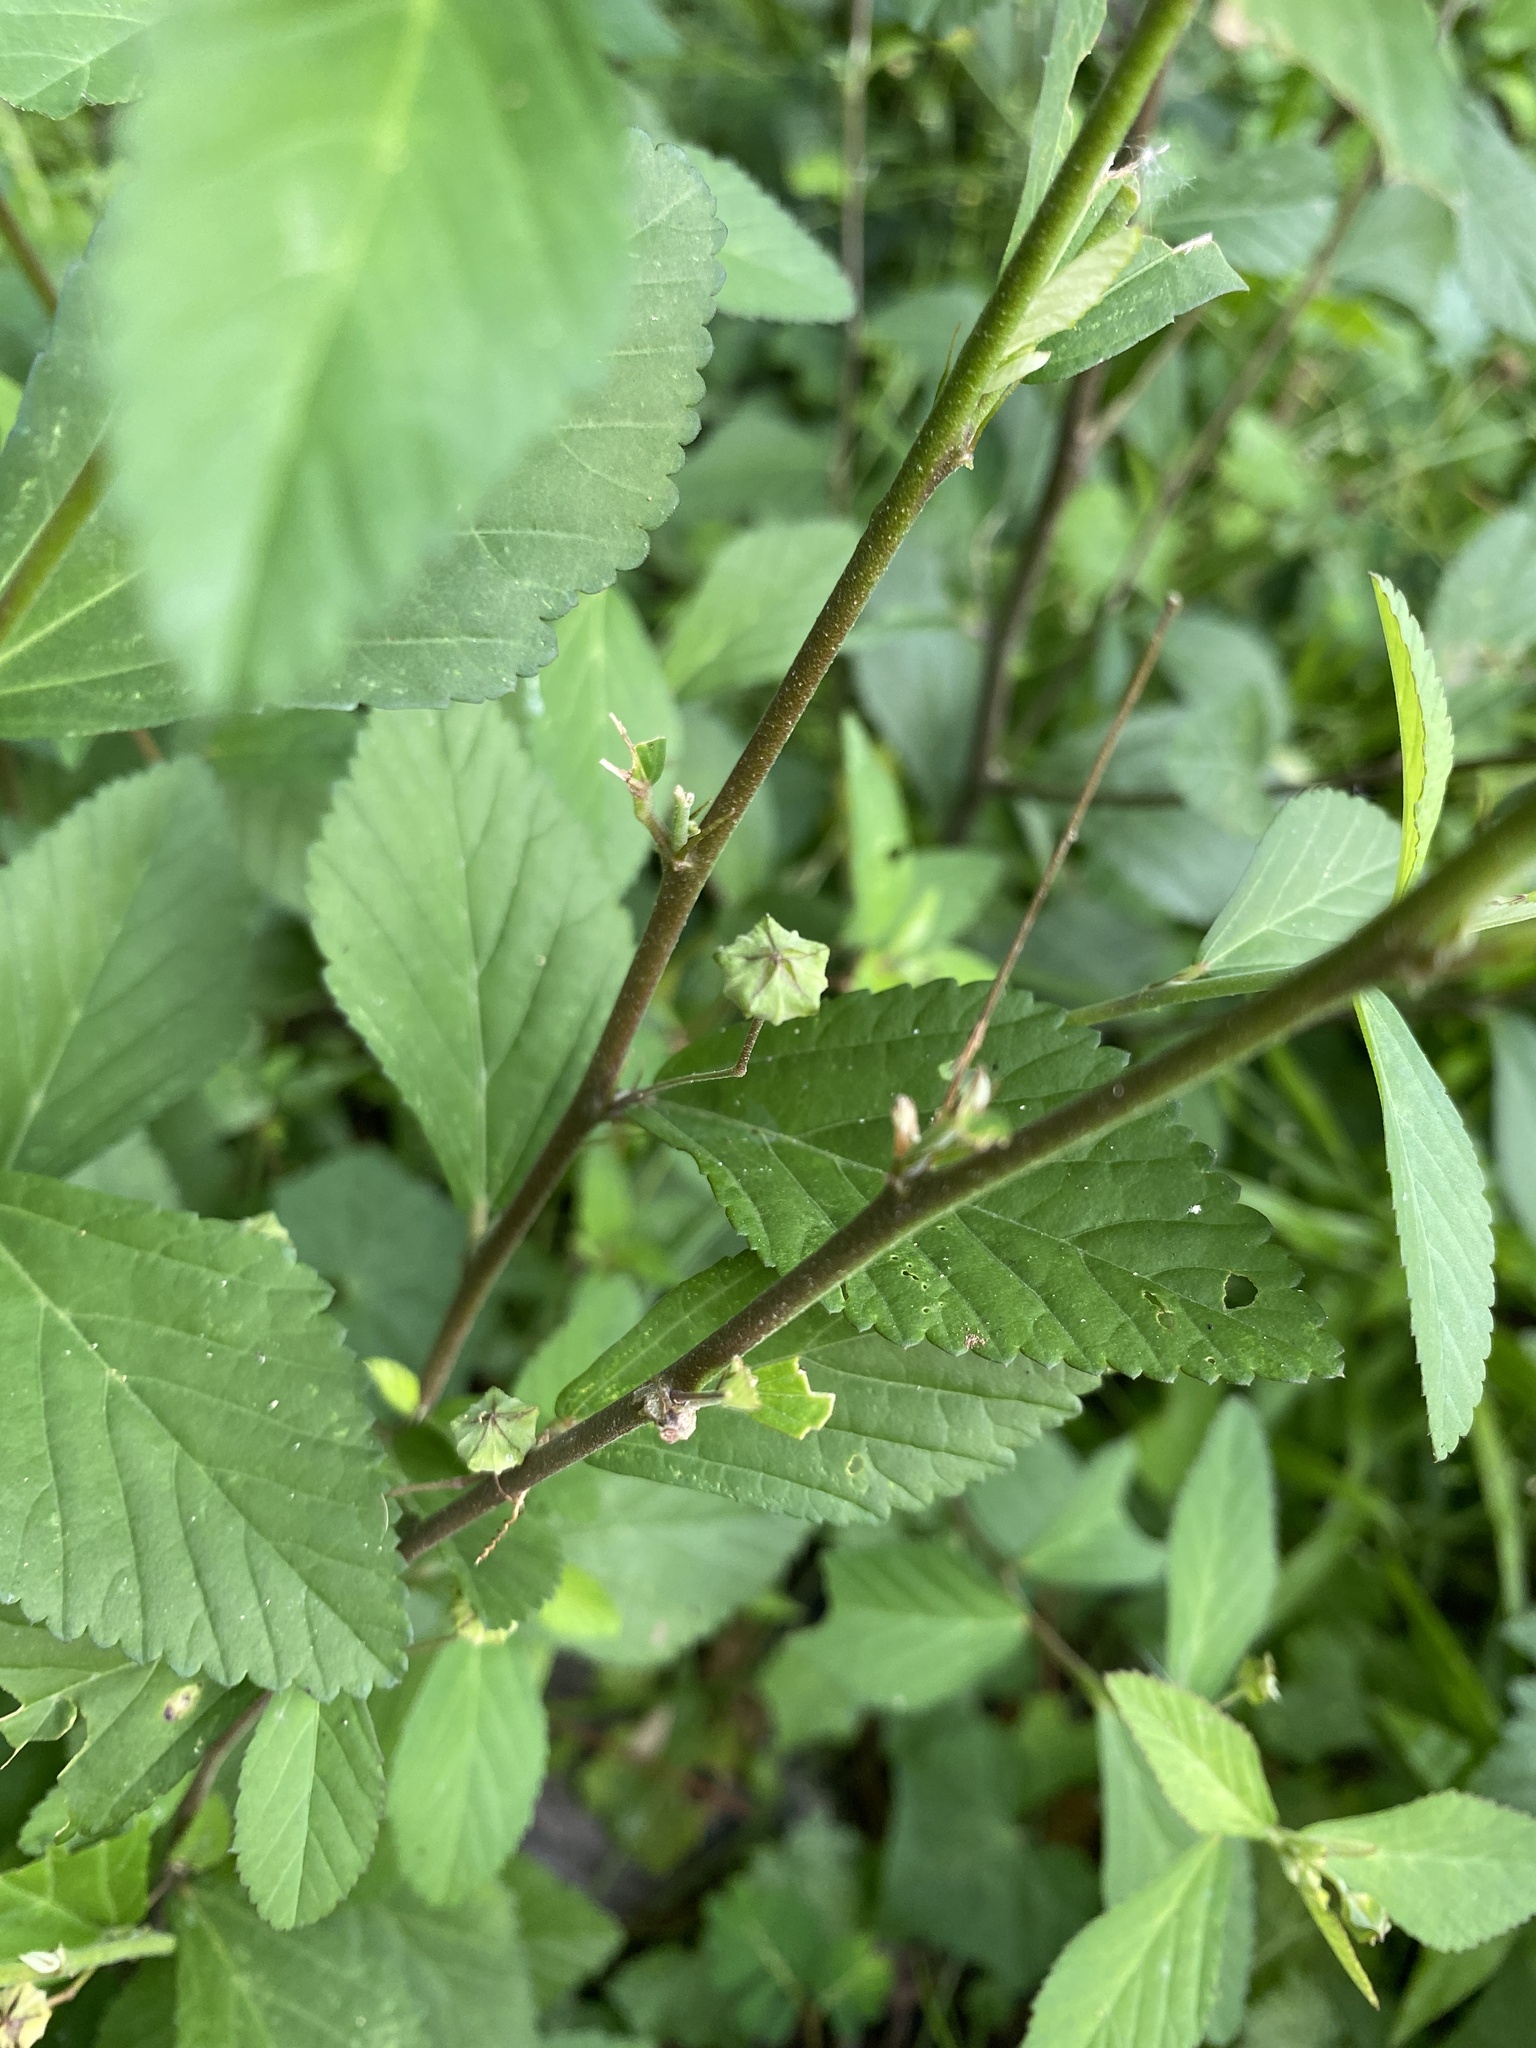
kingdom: Plantae
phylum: Tracheophyta
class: Magnoliopsida
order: Malvales
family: Malvaceae
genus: Sida
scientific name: Sida rhombifolia
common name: Queensland-hemp
